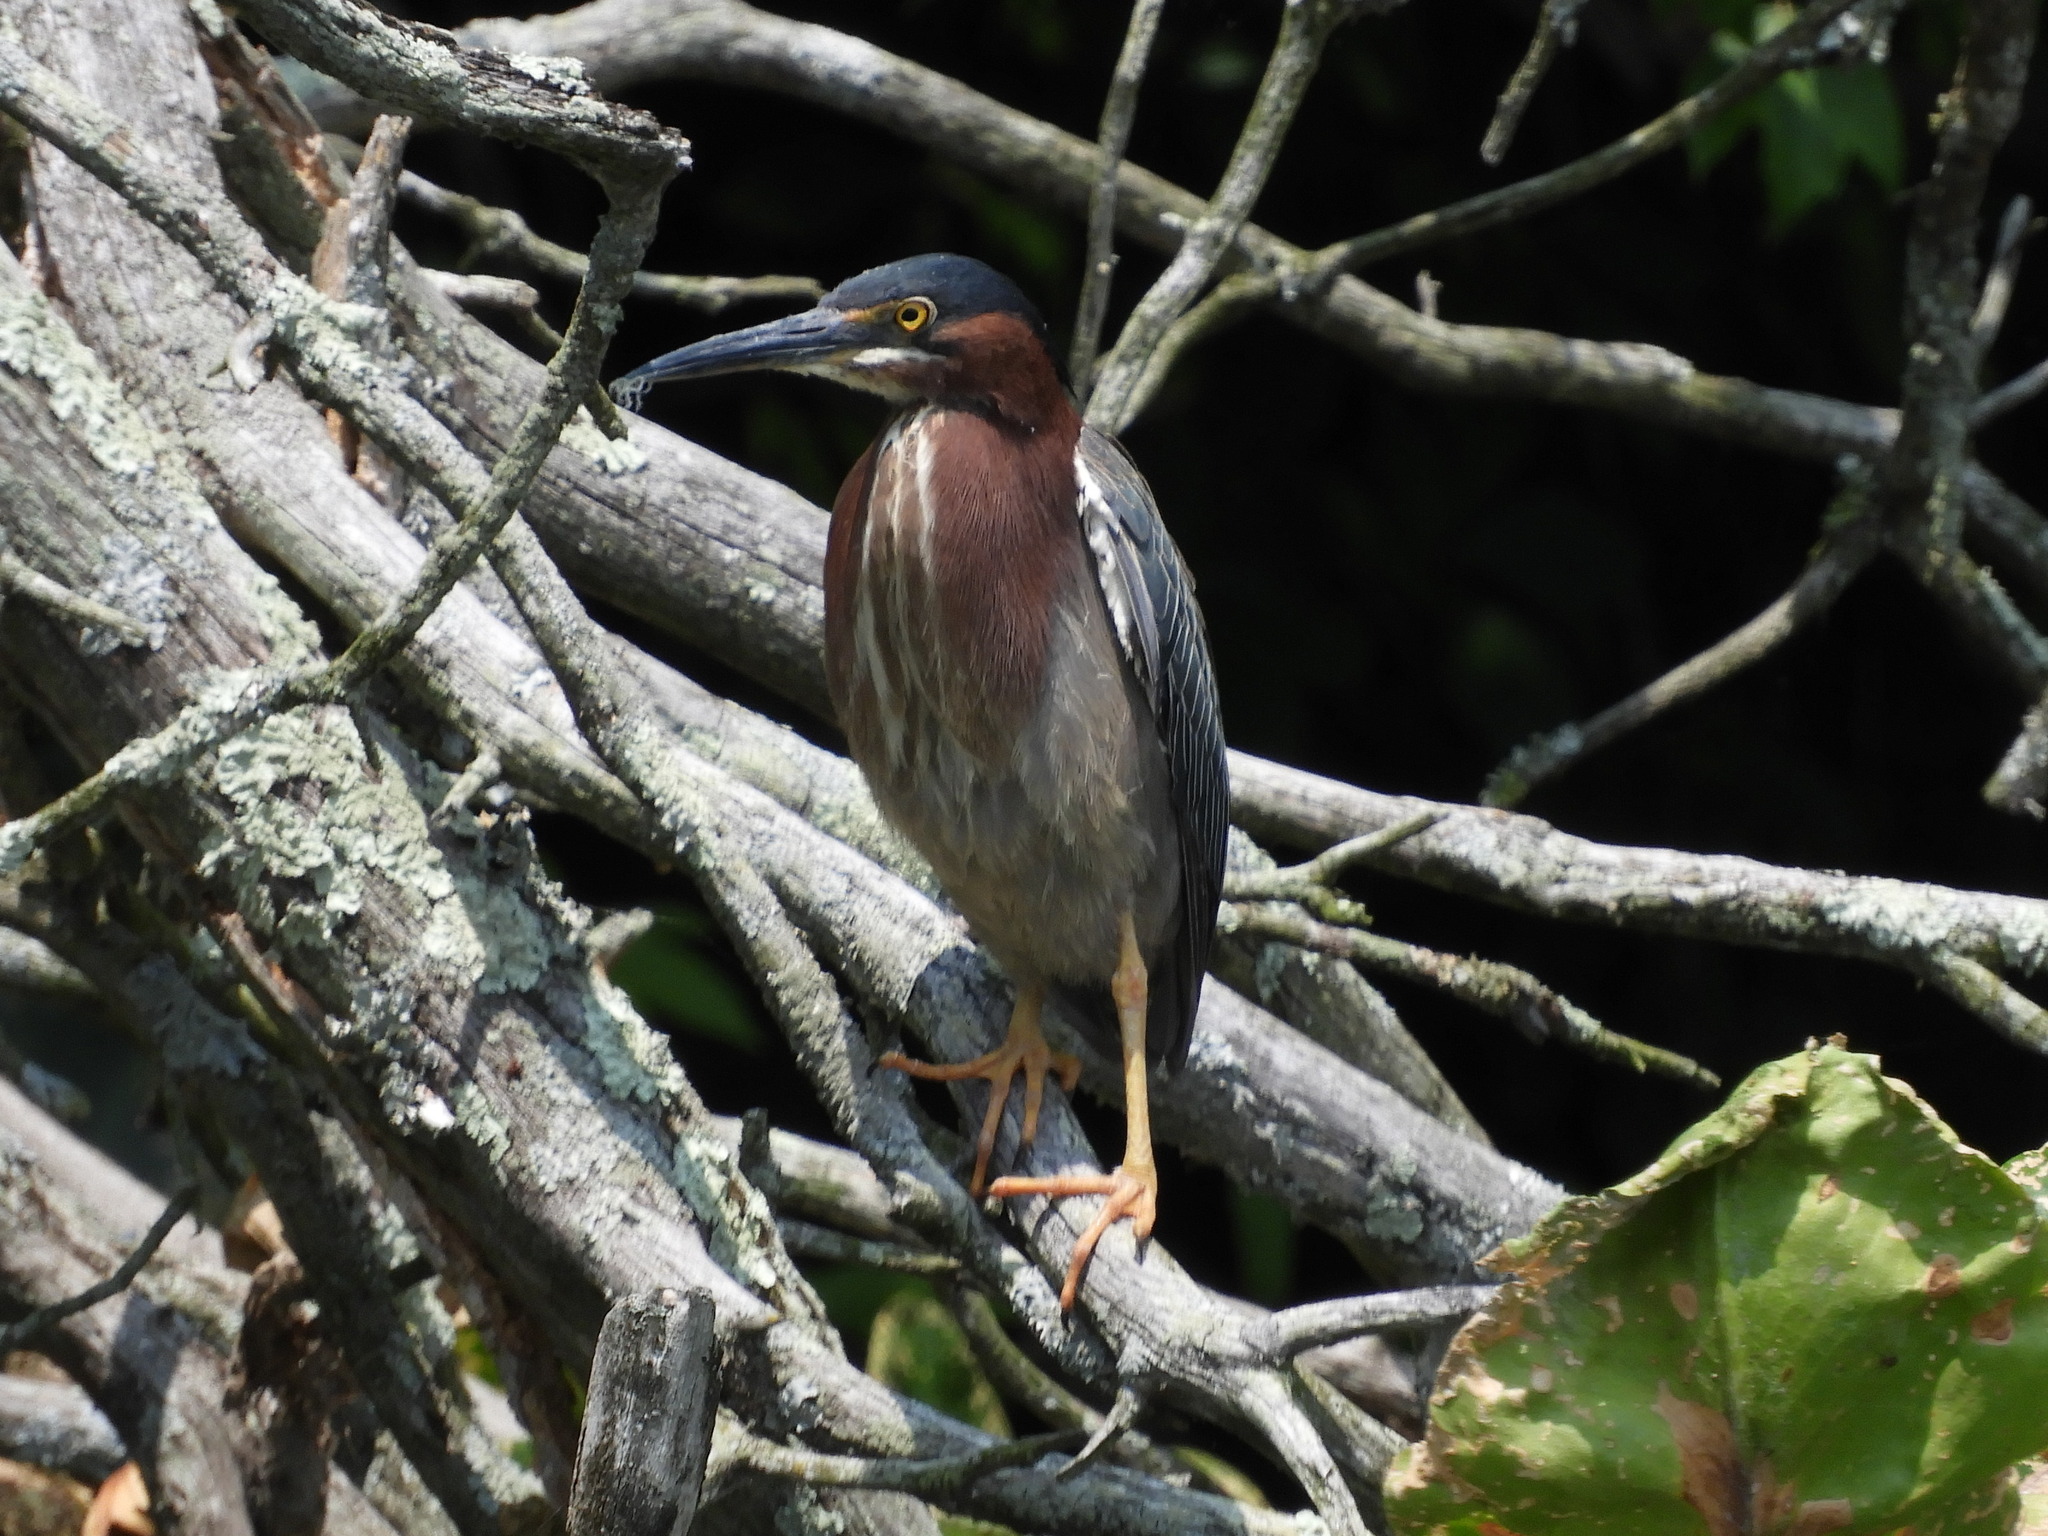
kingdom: Animalia
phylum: Chordata
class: Aves
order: Pelecaniformes
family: Ardeidae
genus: Butorides
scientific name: Butorides virescens
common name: Green heron
